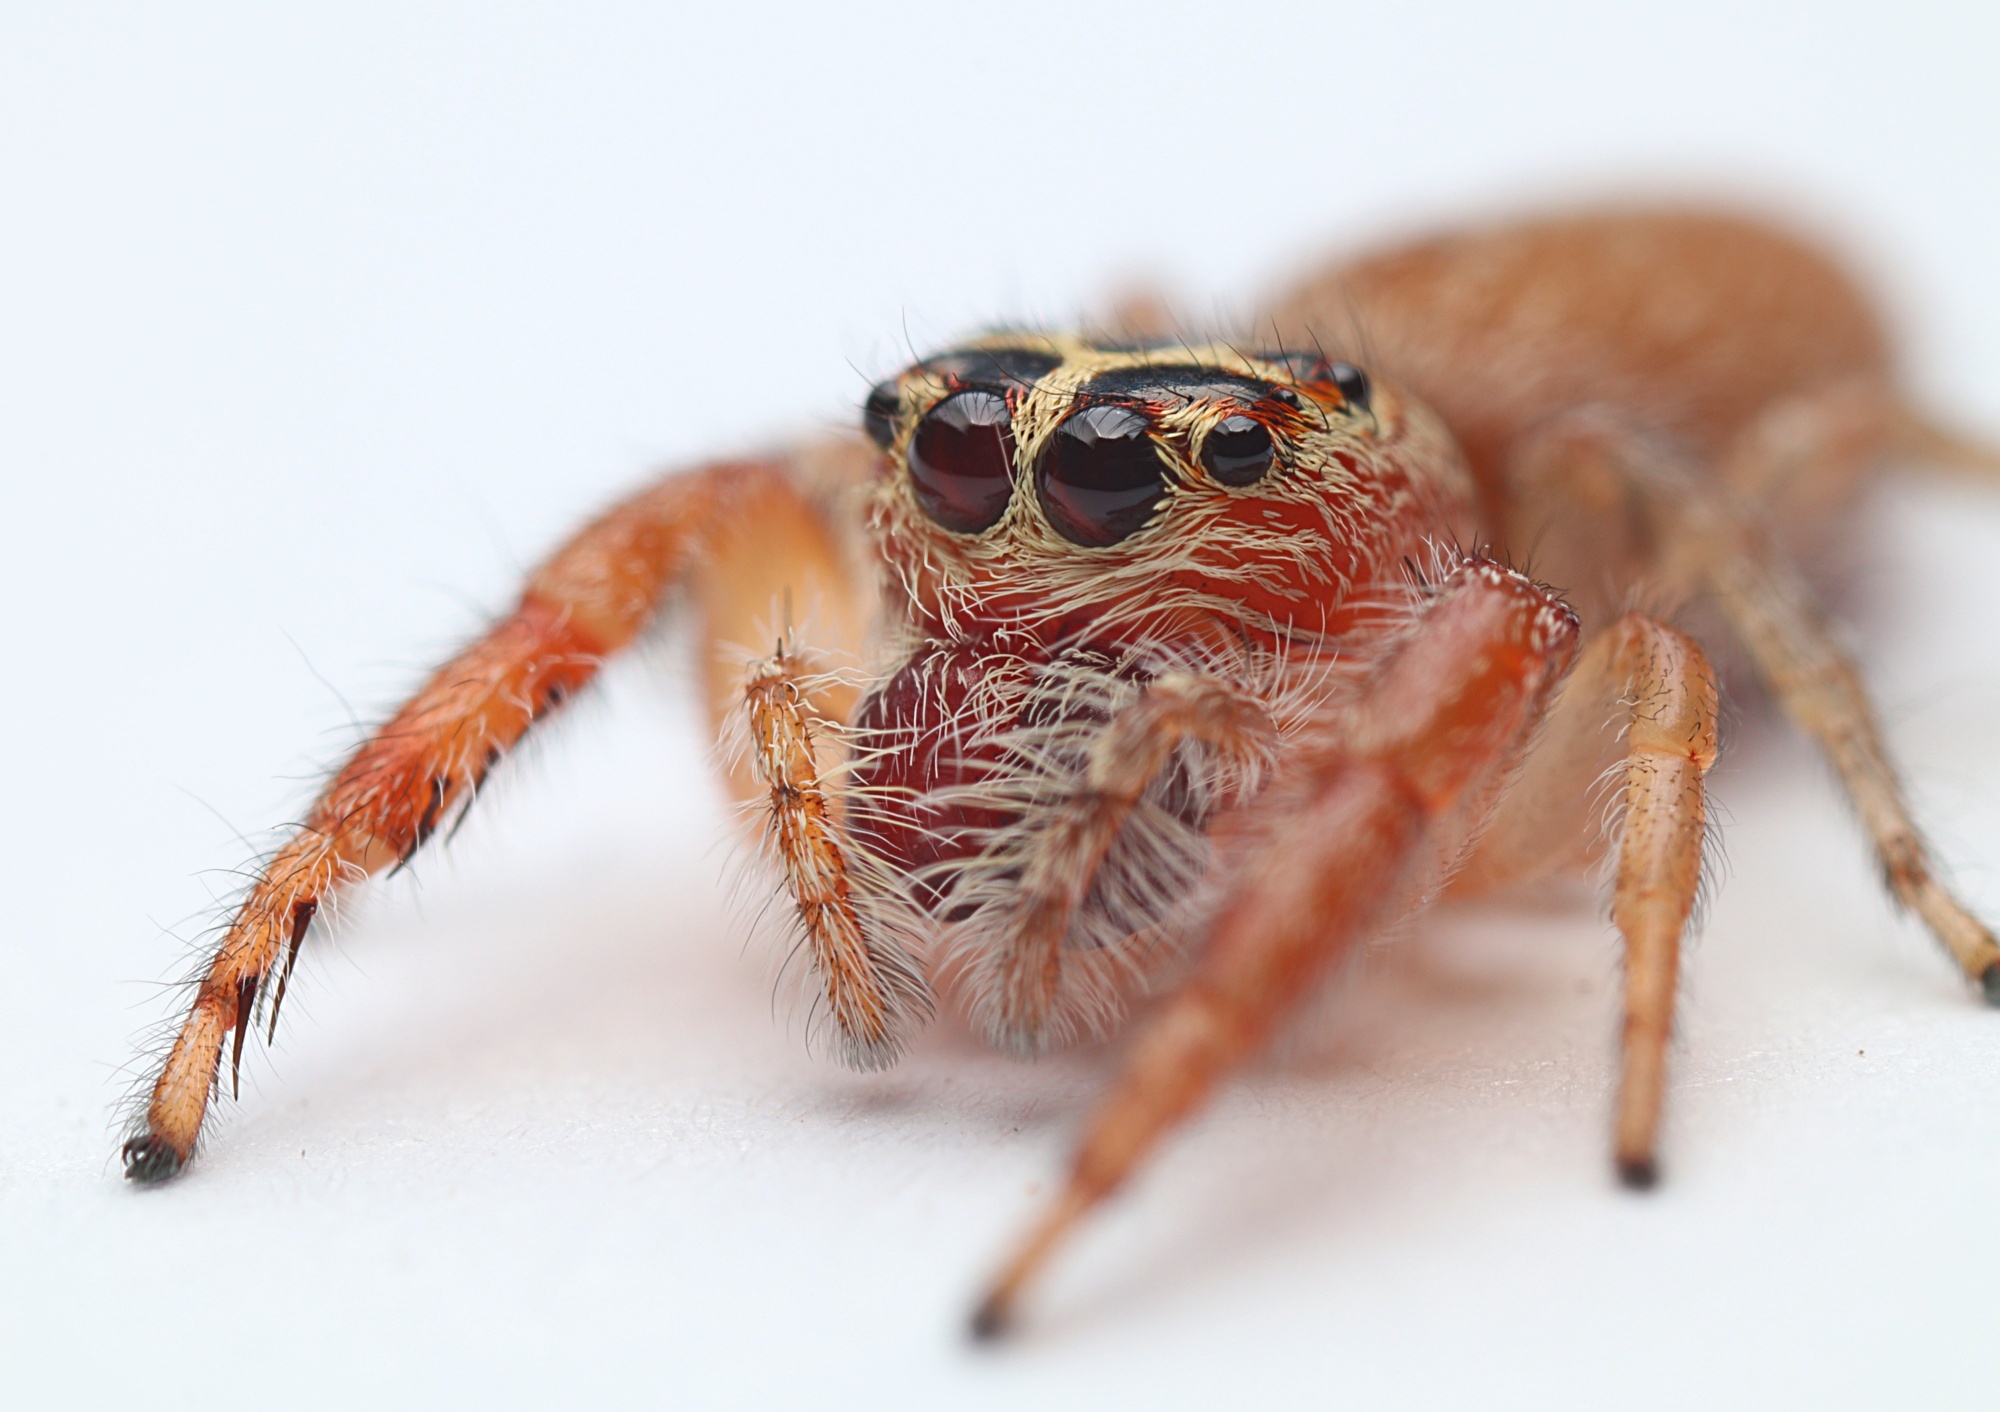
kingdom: Animalia
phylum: Arthropoda
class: Arachnida
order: Araneae
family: Salticidae
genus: Opisthoncus
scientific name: Opisthoncus polyphemus
